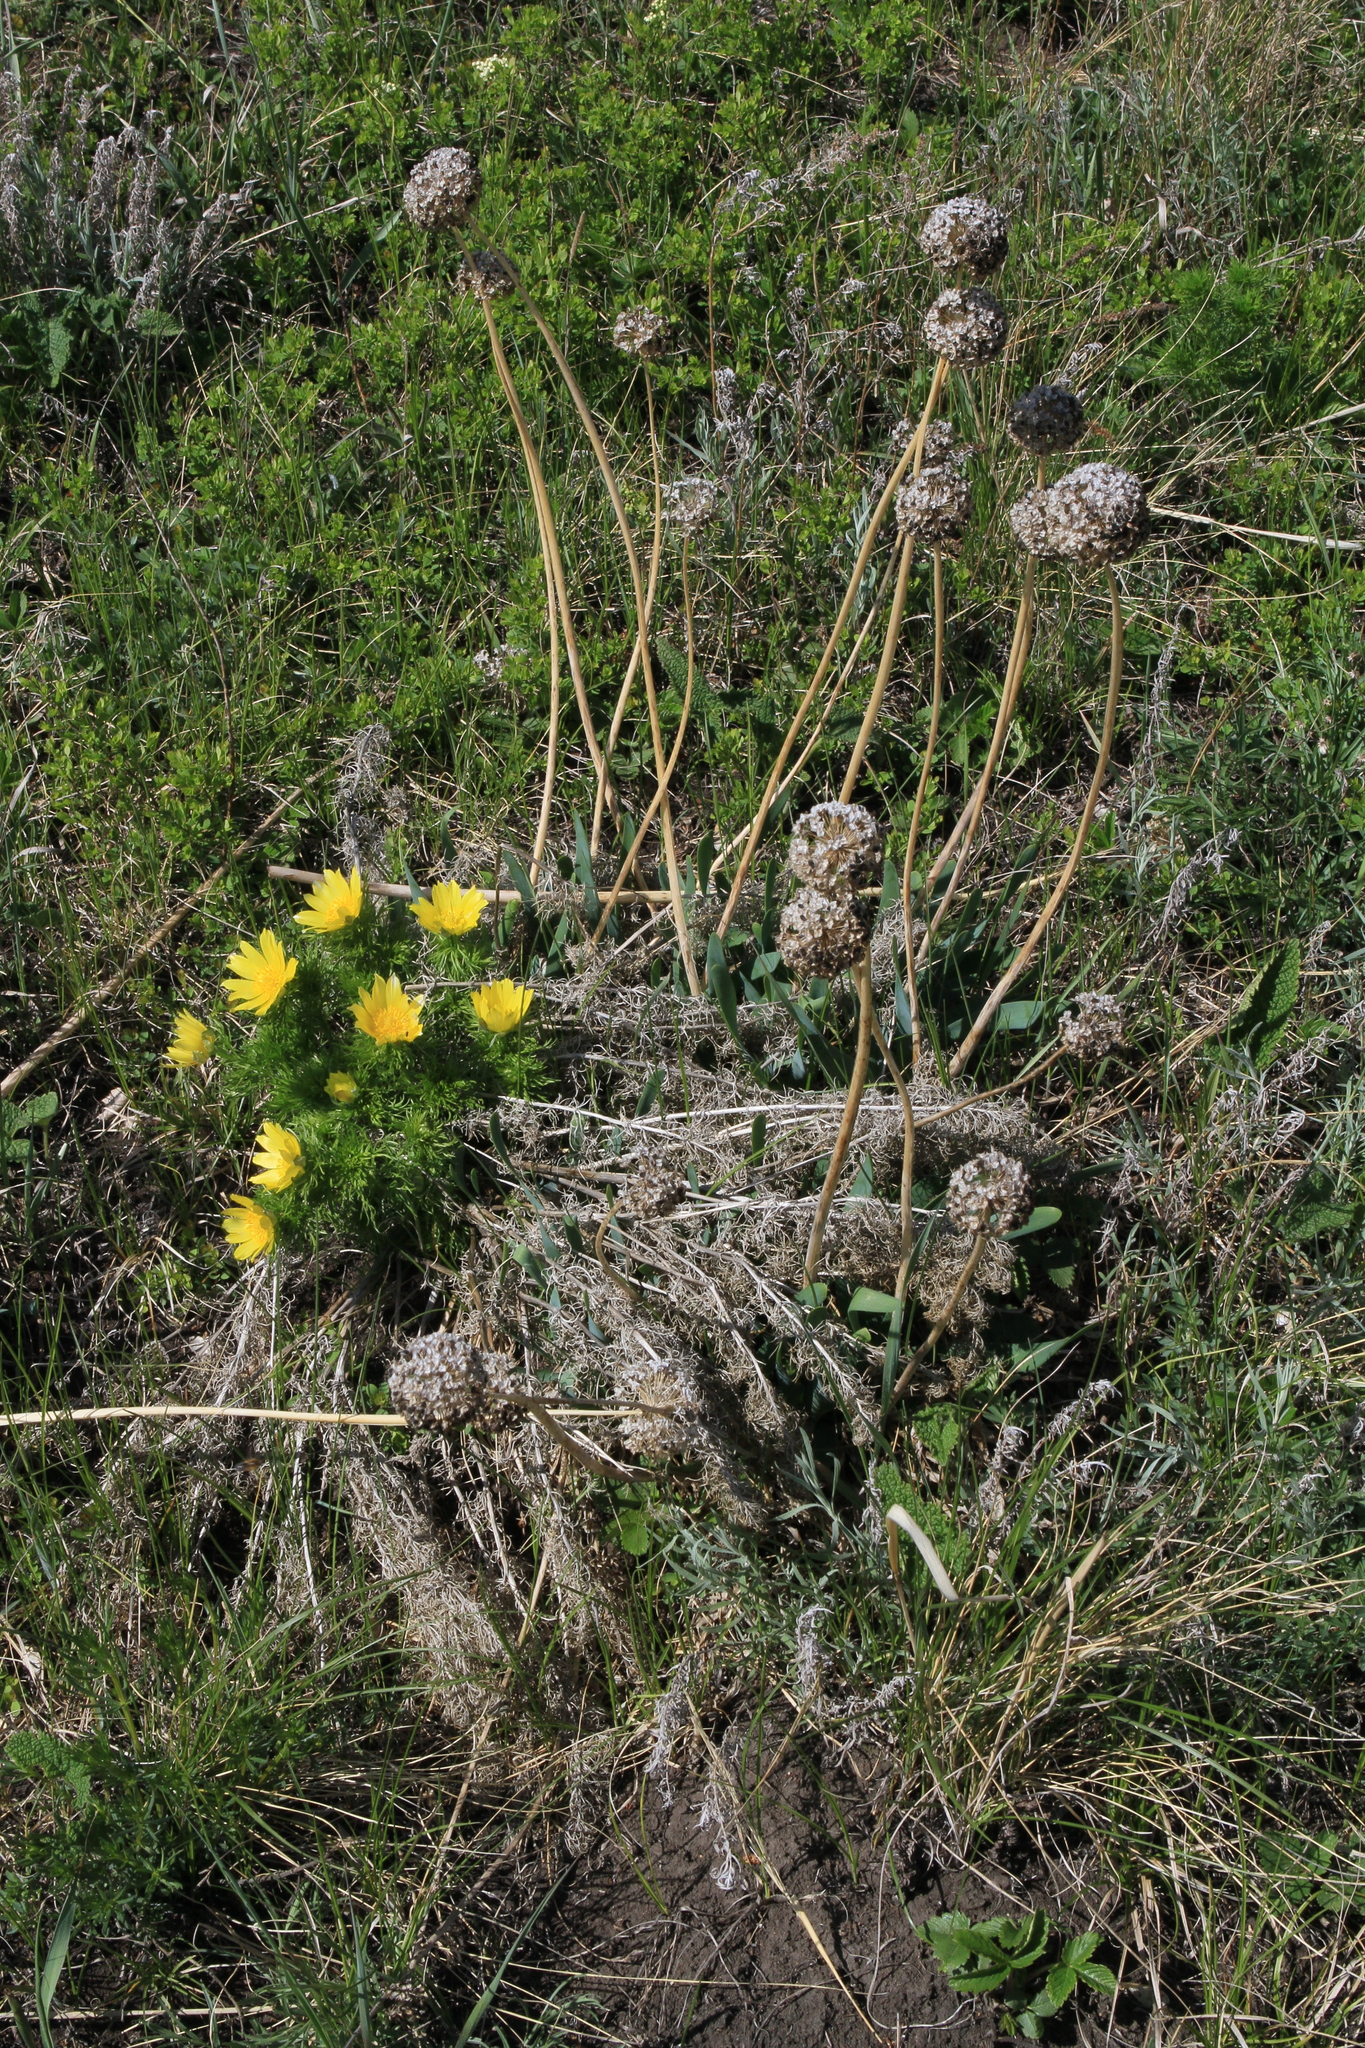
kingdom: Plantae
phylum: Tracheophyta
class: Liliopsida
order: Asparagales
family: Amaryllidaceae
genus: Allium
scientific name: Allium nutans
